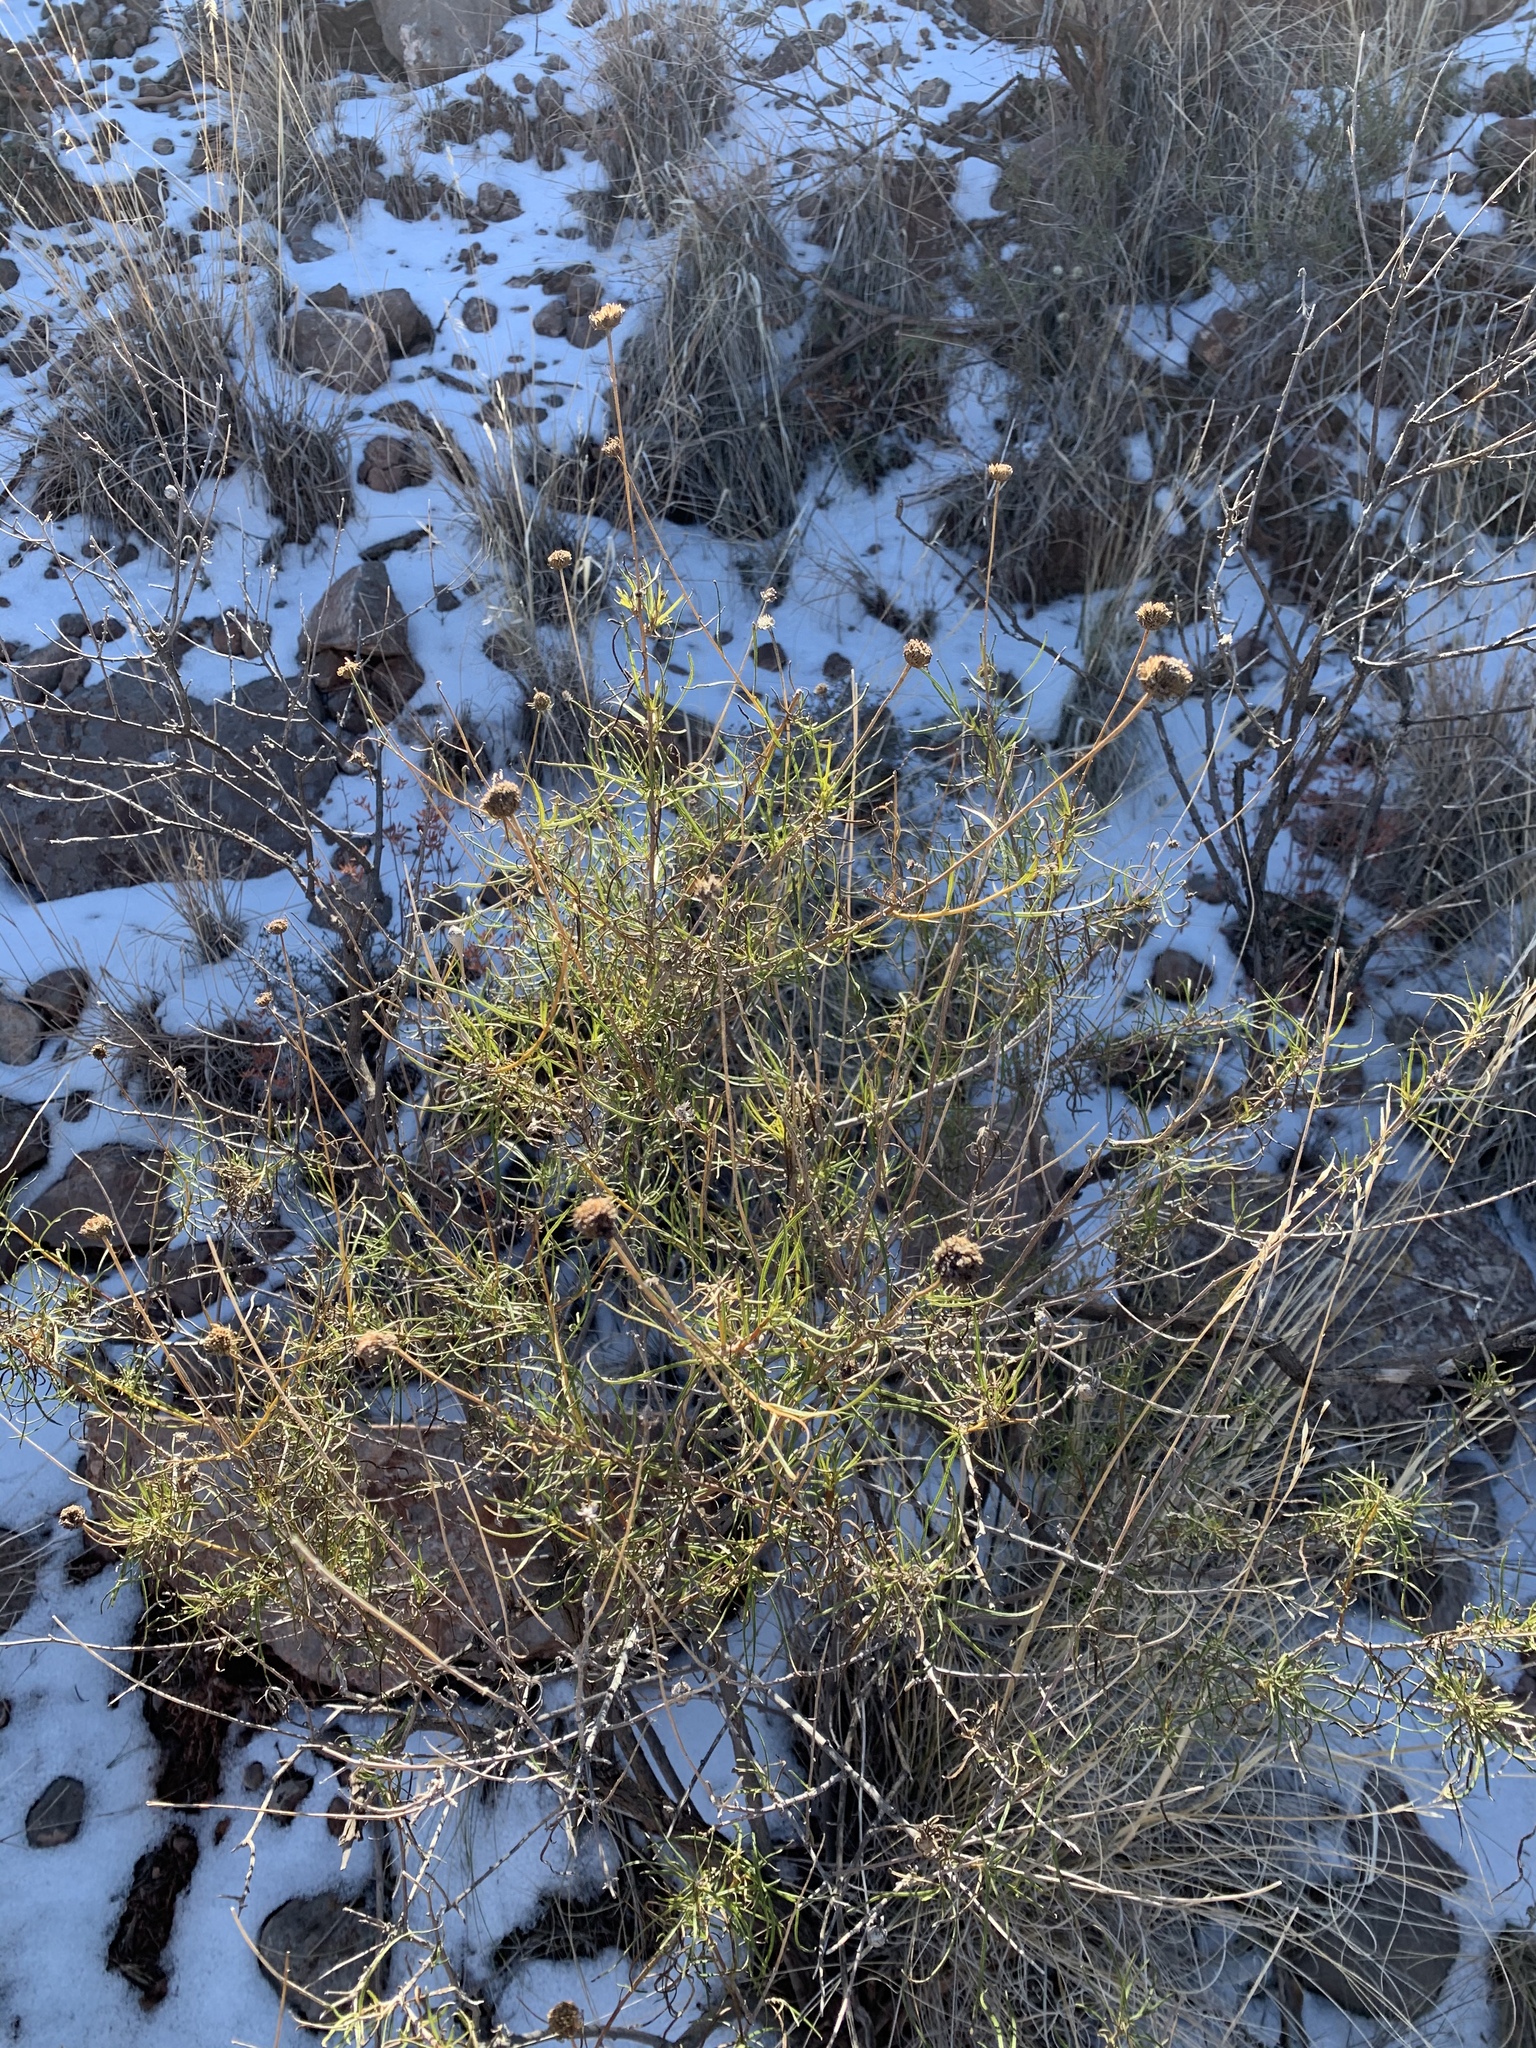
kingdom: Plantae
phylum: Tracheophyta
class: Magnoliopsida
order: Asterales
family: Asteraceae
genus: Sidneya
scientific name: Sidneya tenuifolia
